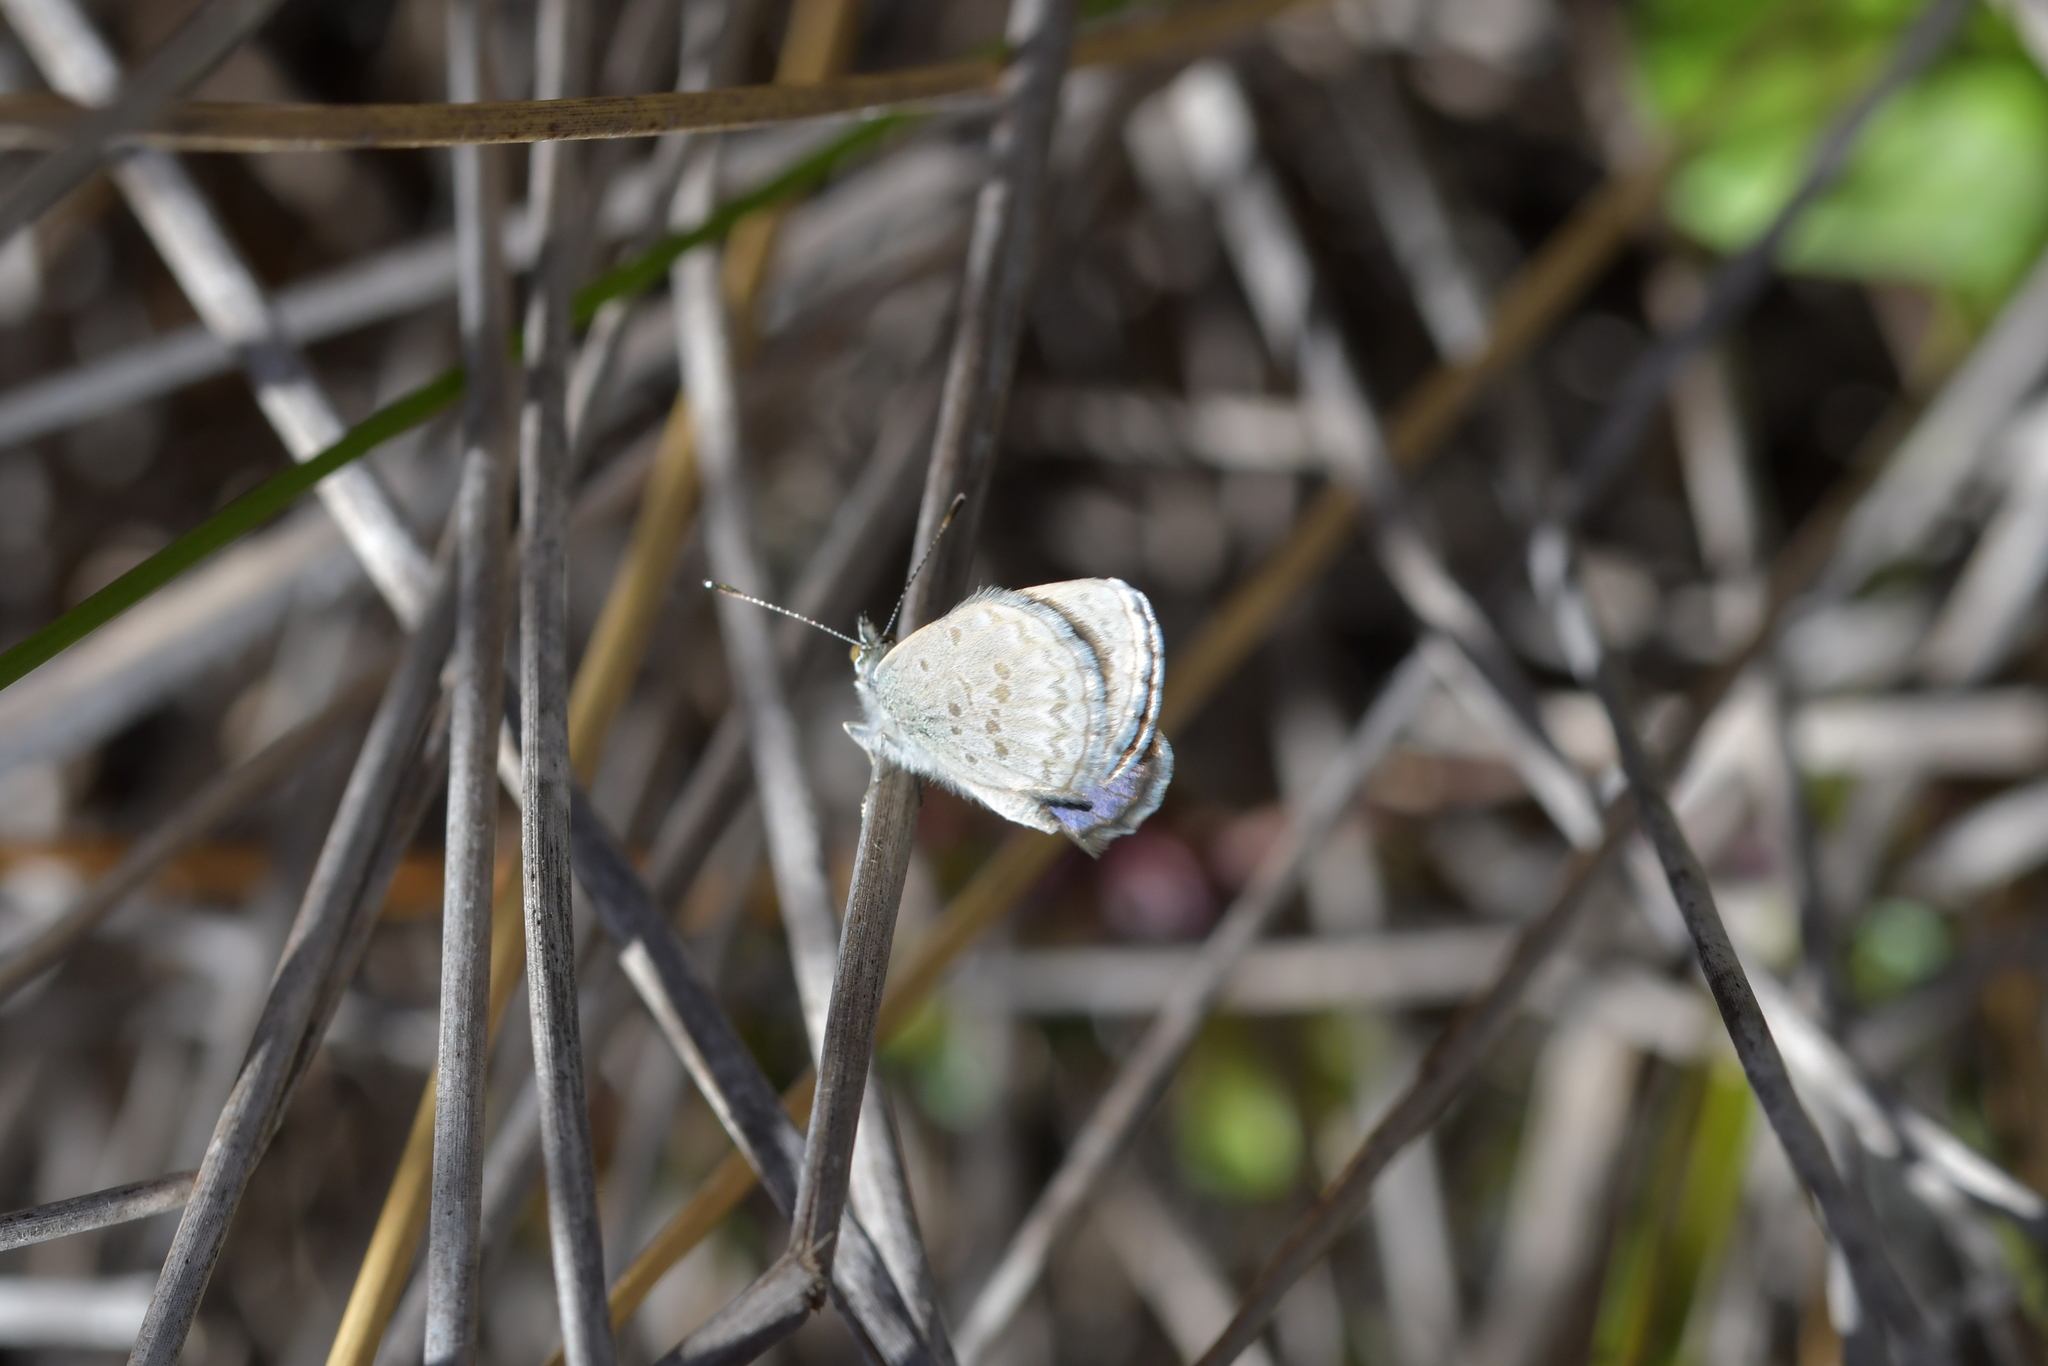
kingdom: Animalia
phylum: Arthropoda
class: Insecta
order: Lepidoptera
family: Lycaenidae
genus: Zizina
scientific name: Zizina labradus
